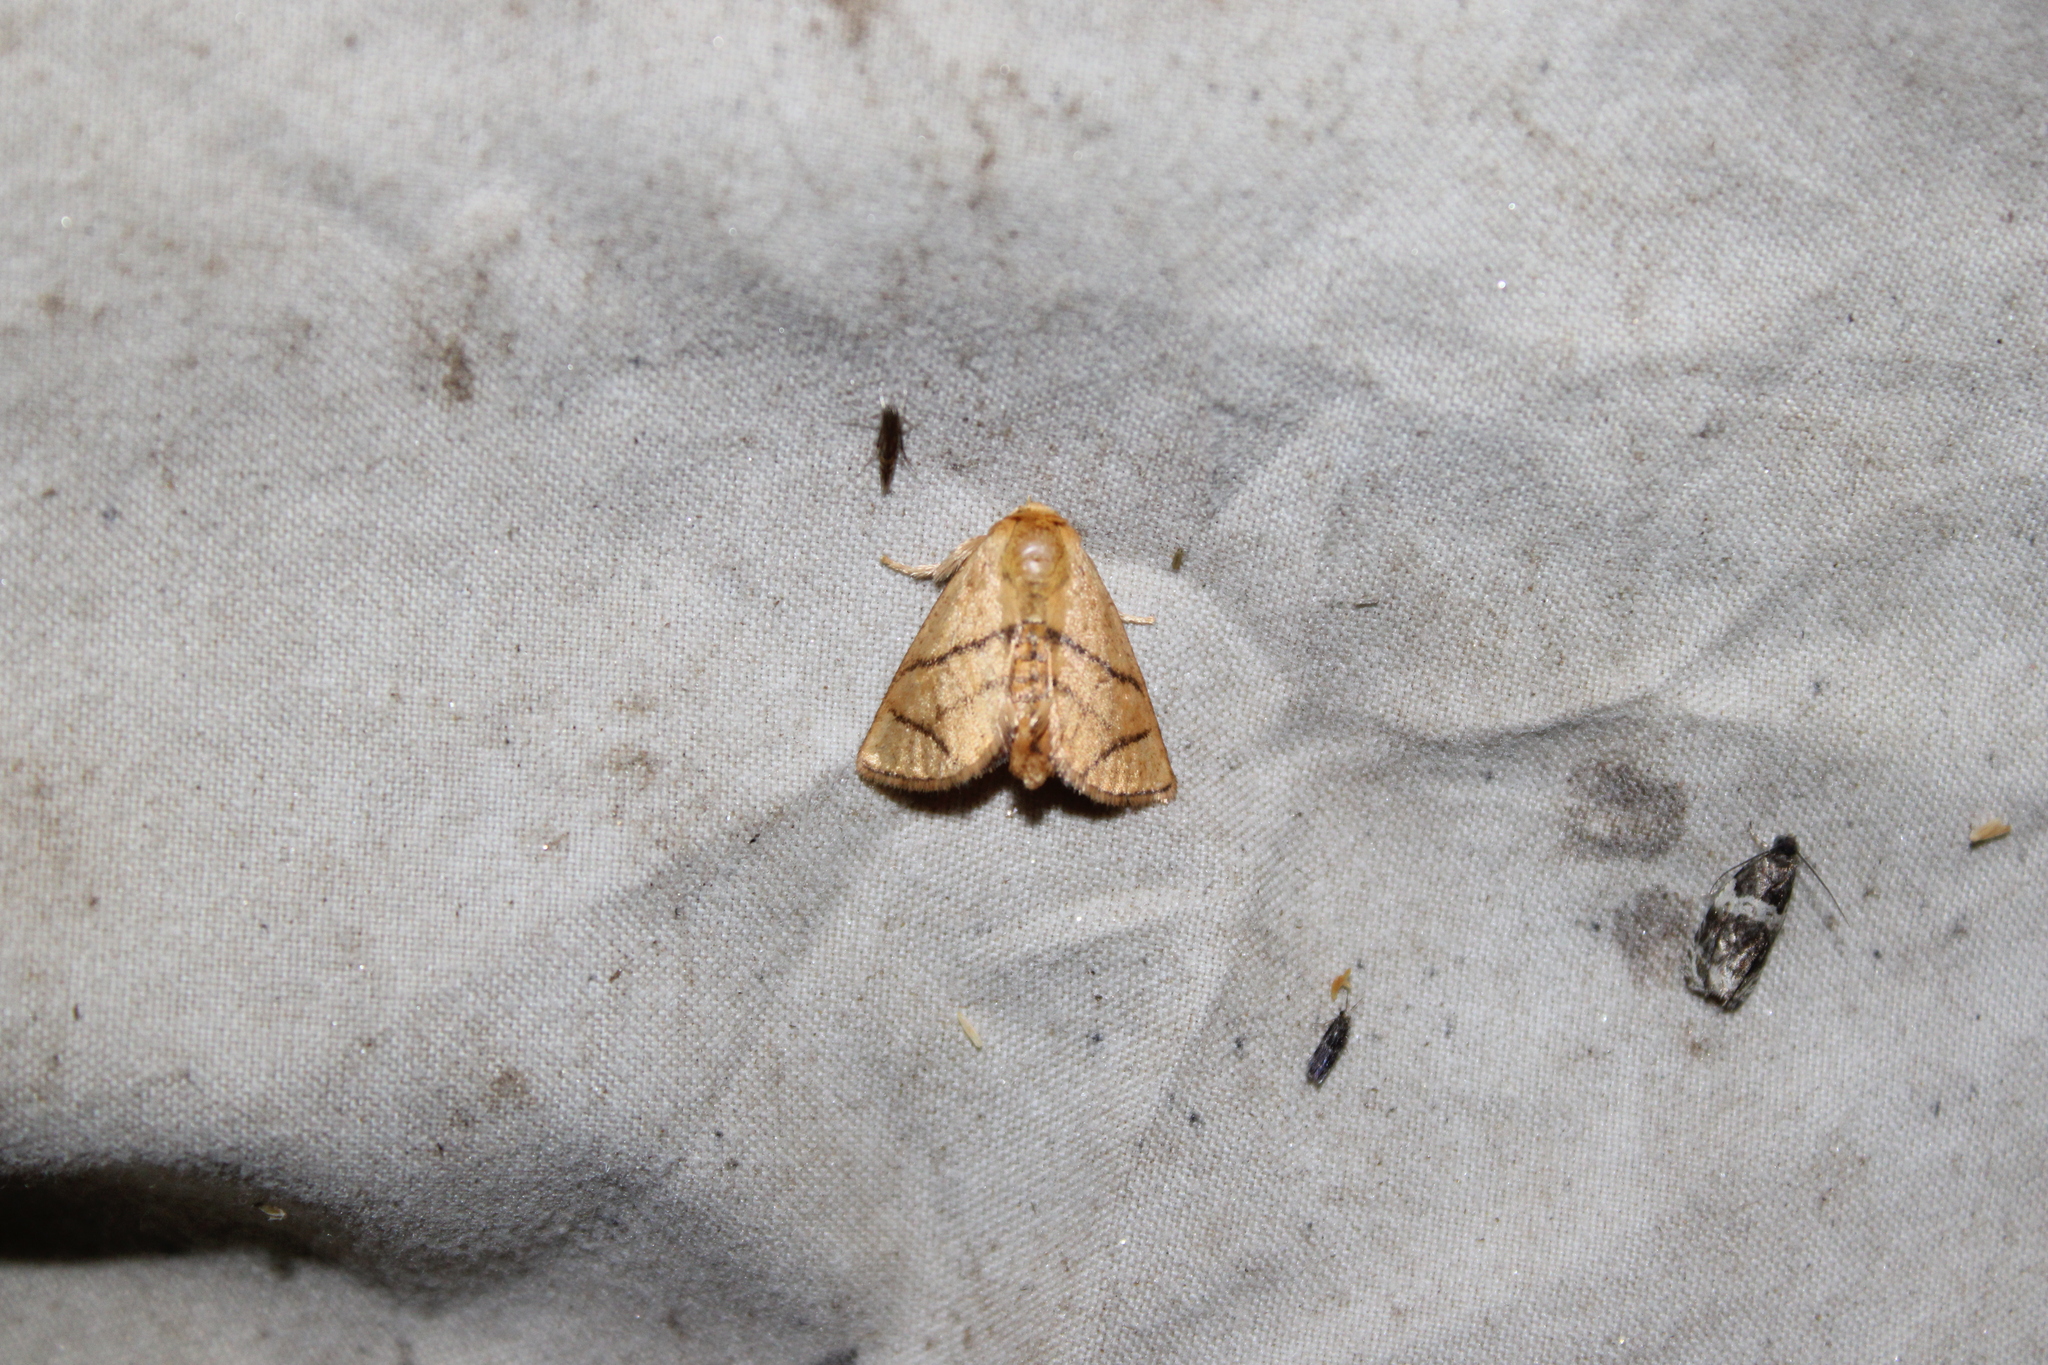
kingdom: Animalia
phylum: Arthropoda
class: Insecta
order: Lepidoptera
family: Limacodidae
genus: Apoda
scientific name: Apoda y-inversa
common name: Yellow-collared slug moth
